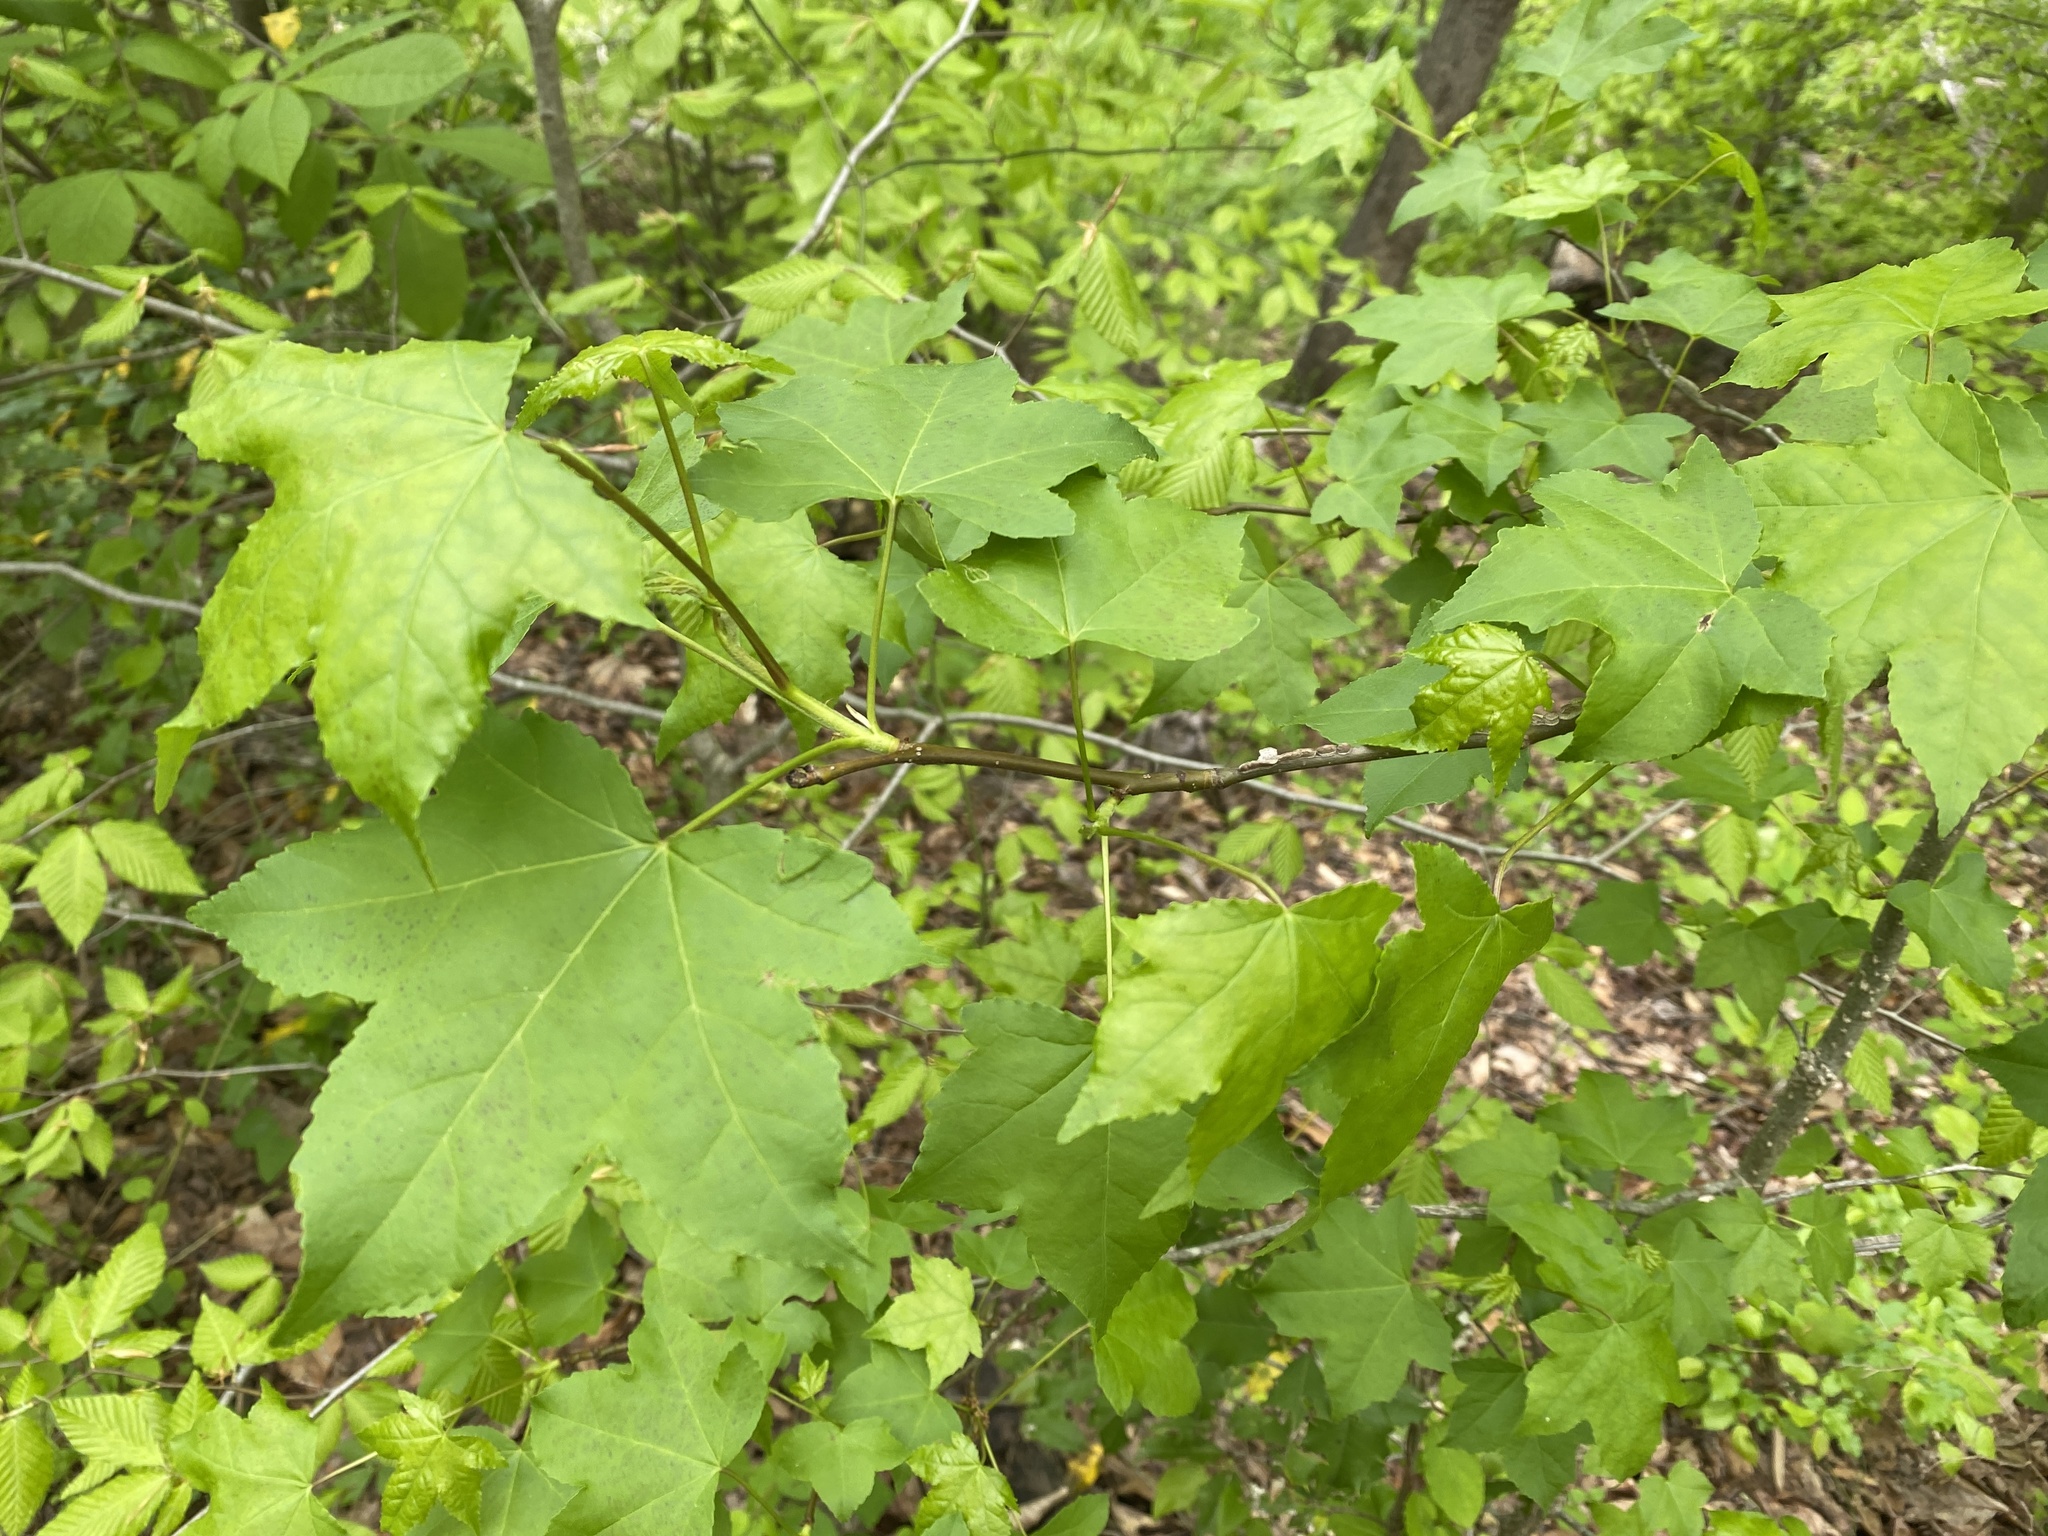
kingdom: Plantae
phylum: Tracheophyta
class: Magnoliopsida
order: Saxifragales
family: Altingiaceae
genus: Liquidambar
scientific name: Liquidambar styraciflua
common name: Sweet gum
